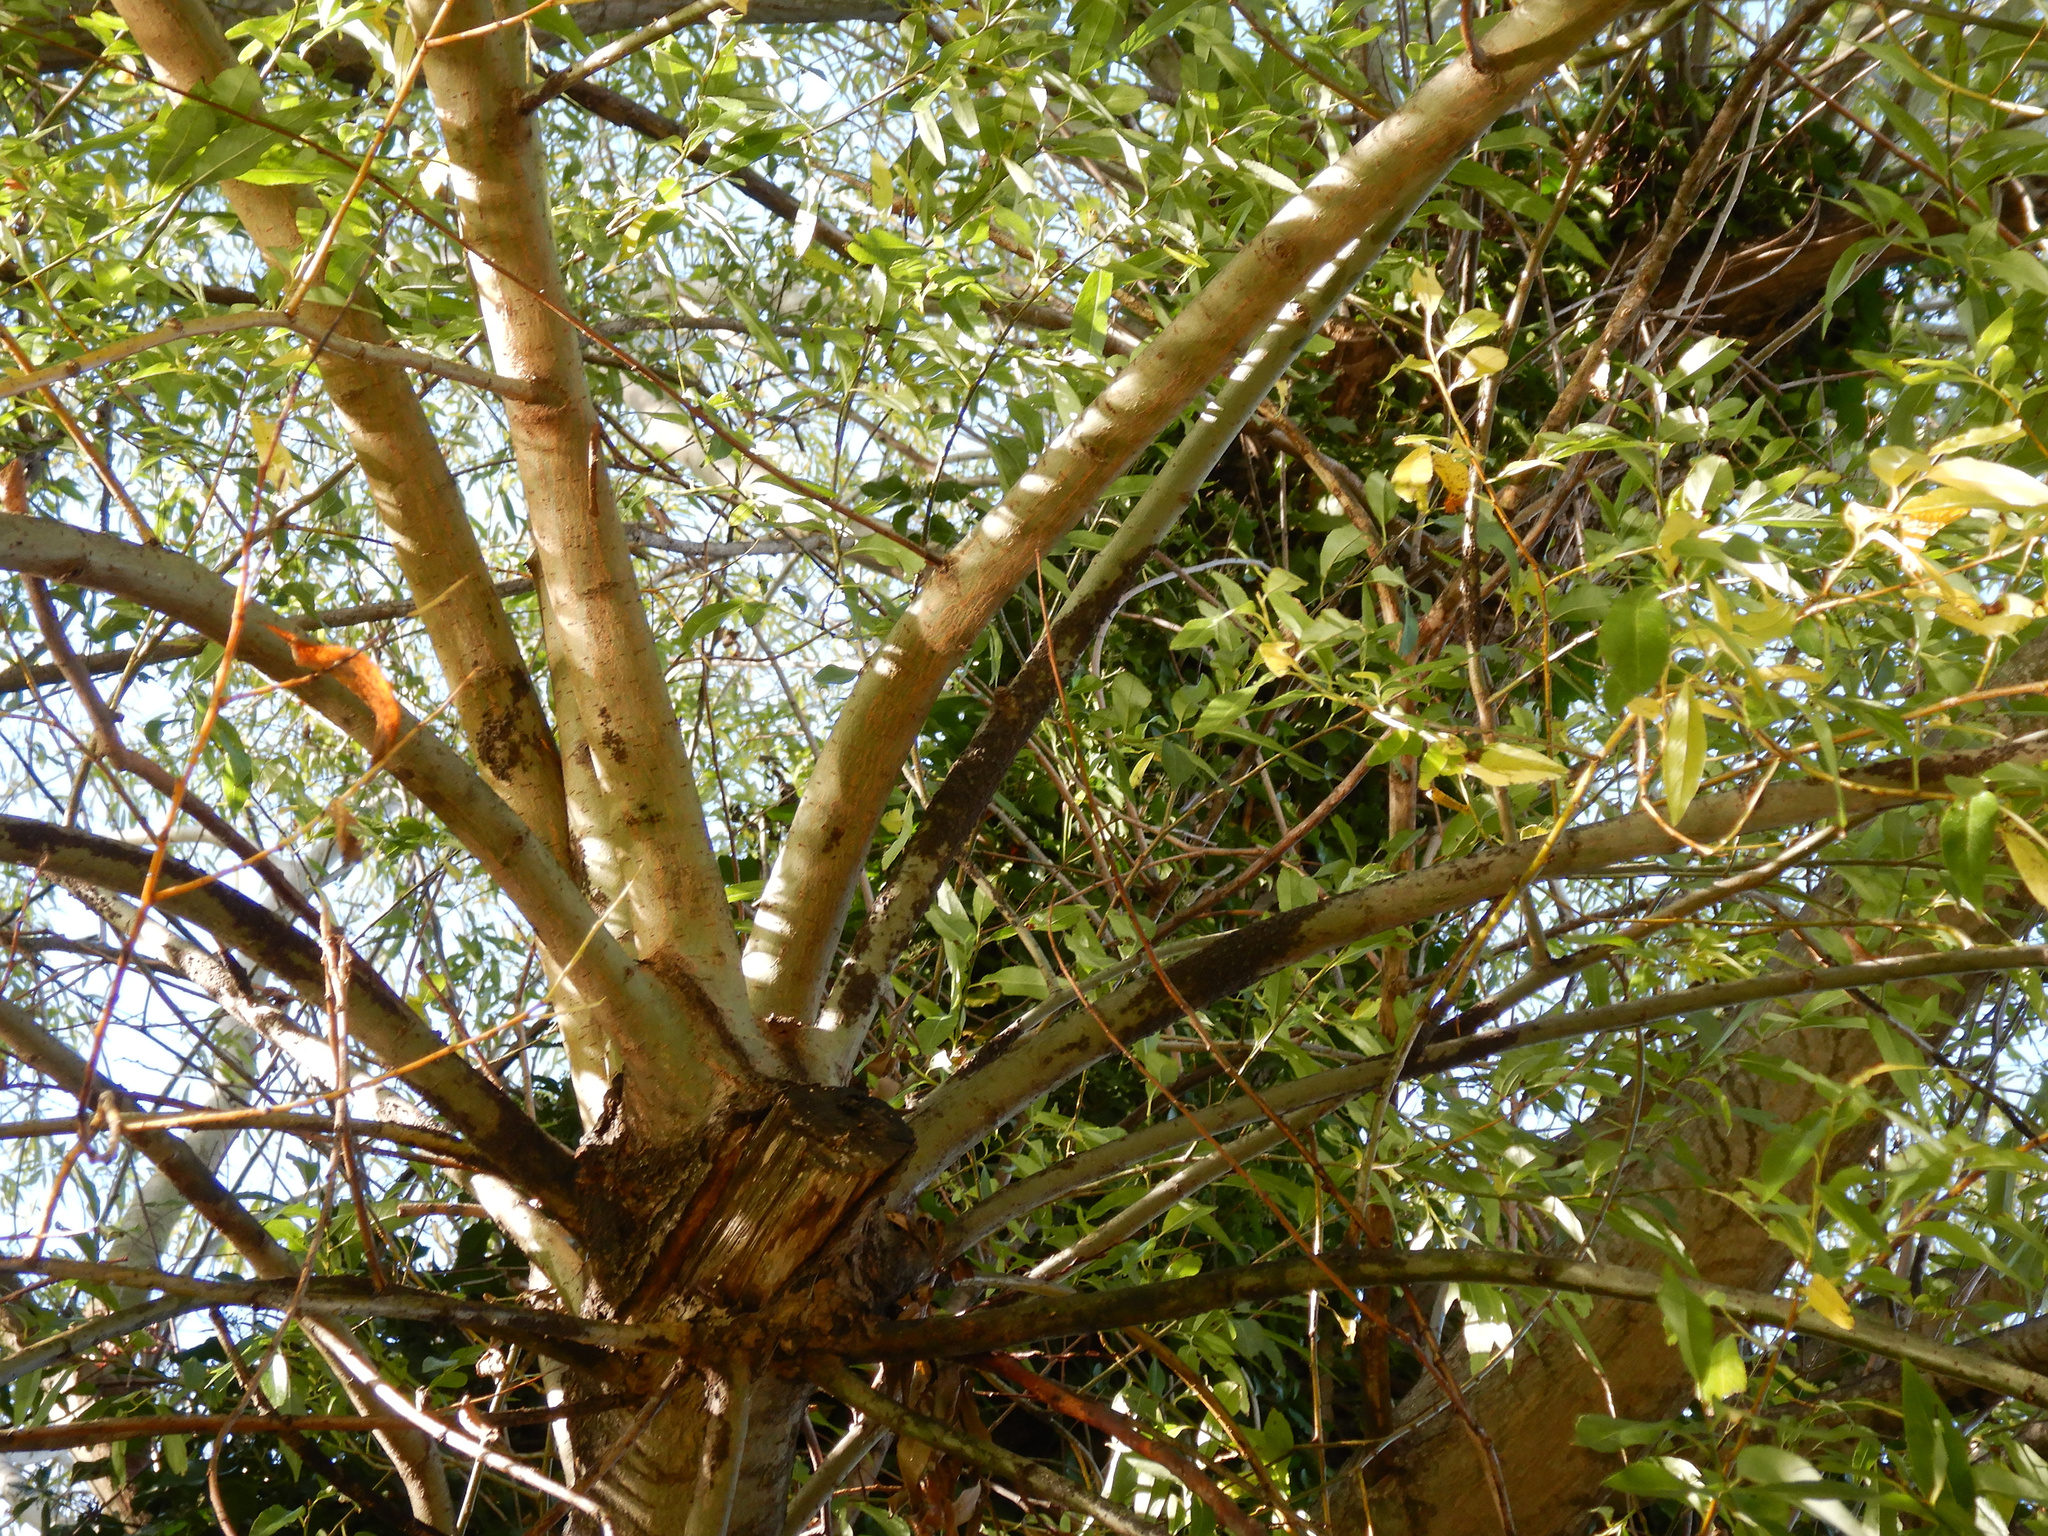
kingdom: Animalia
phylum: Arthropoda
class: Insecta
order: Hemiptera
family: Aphididae
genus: Tuberolachnus
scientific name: Tuberolachnus salignus
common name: Giant willow aphid
